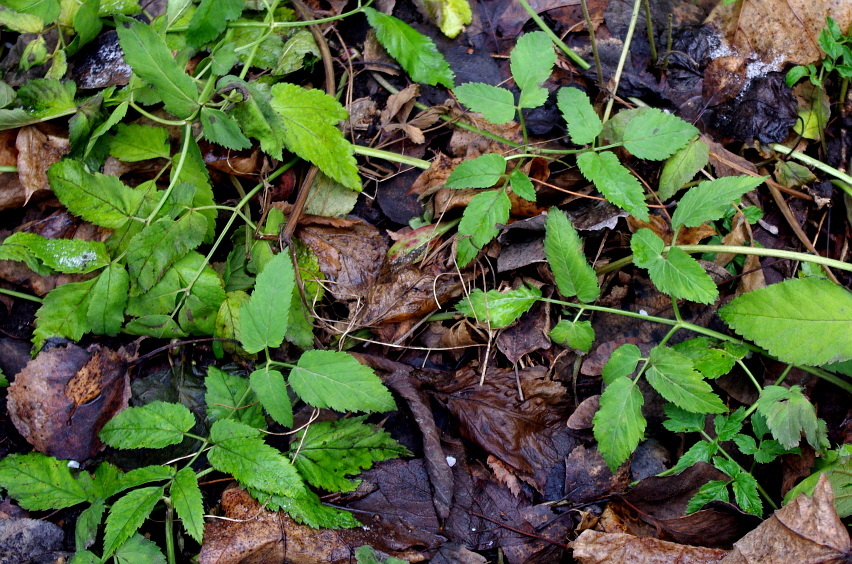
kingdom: Plantae
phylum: Tracheophyta
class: Magnoliopsida
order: Apiales
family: Apiaceae
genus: Aegopodium
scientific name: Aegopodium podagraria
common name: Ground-elder
